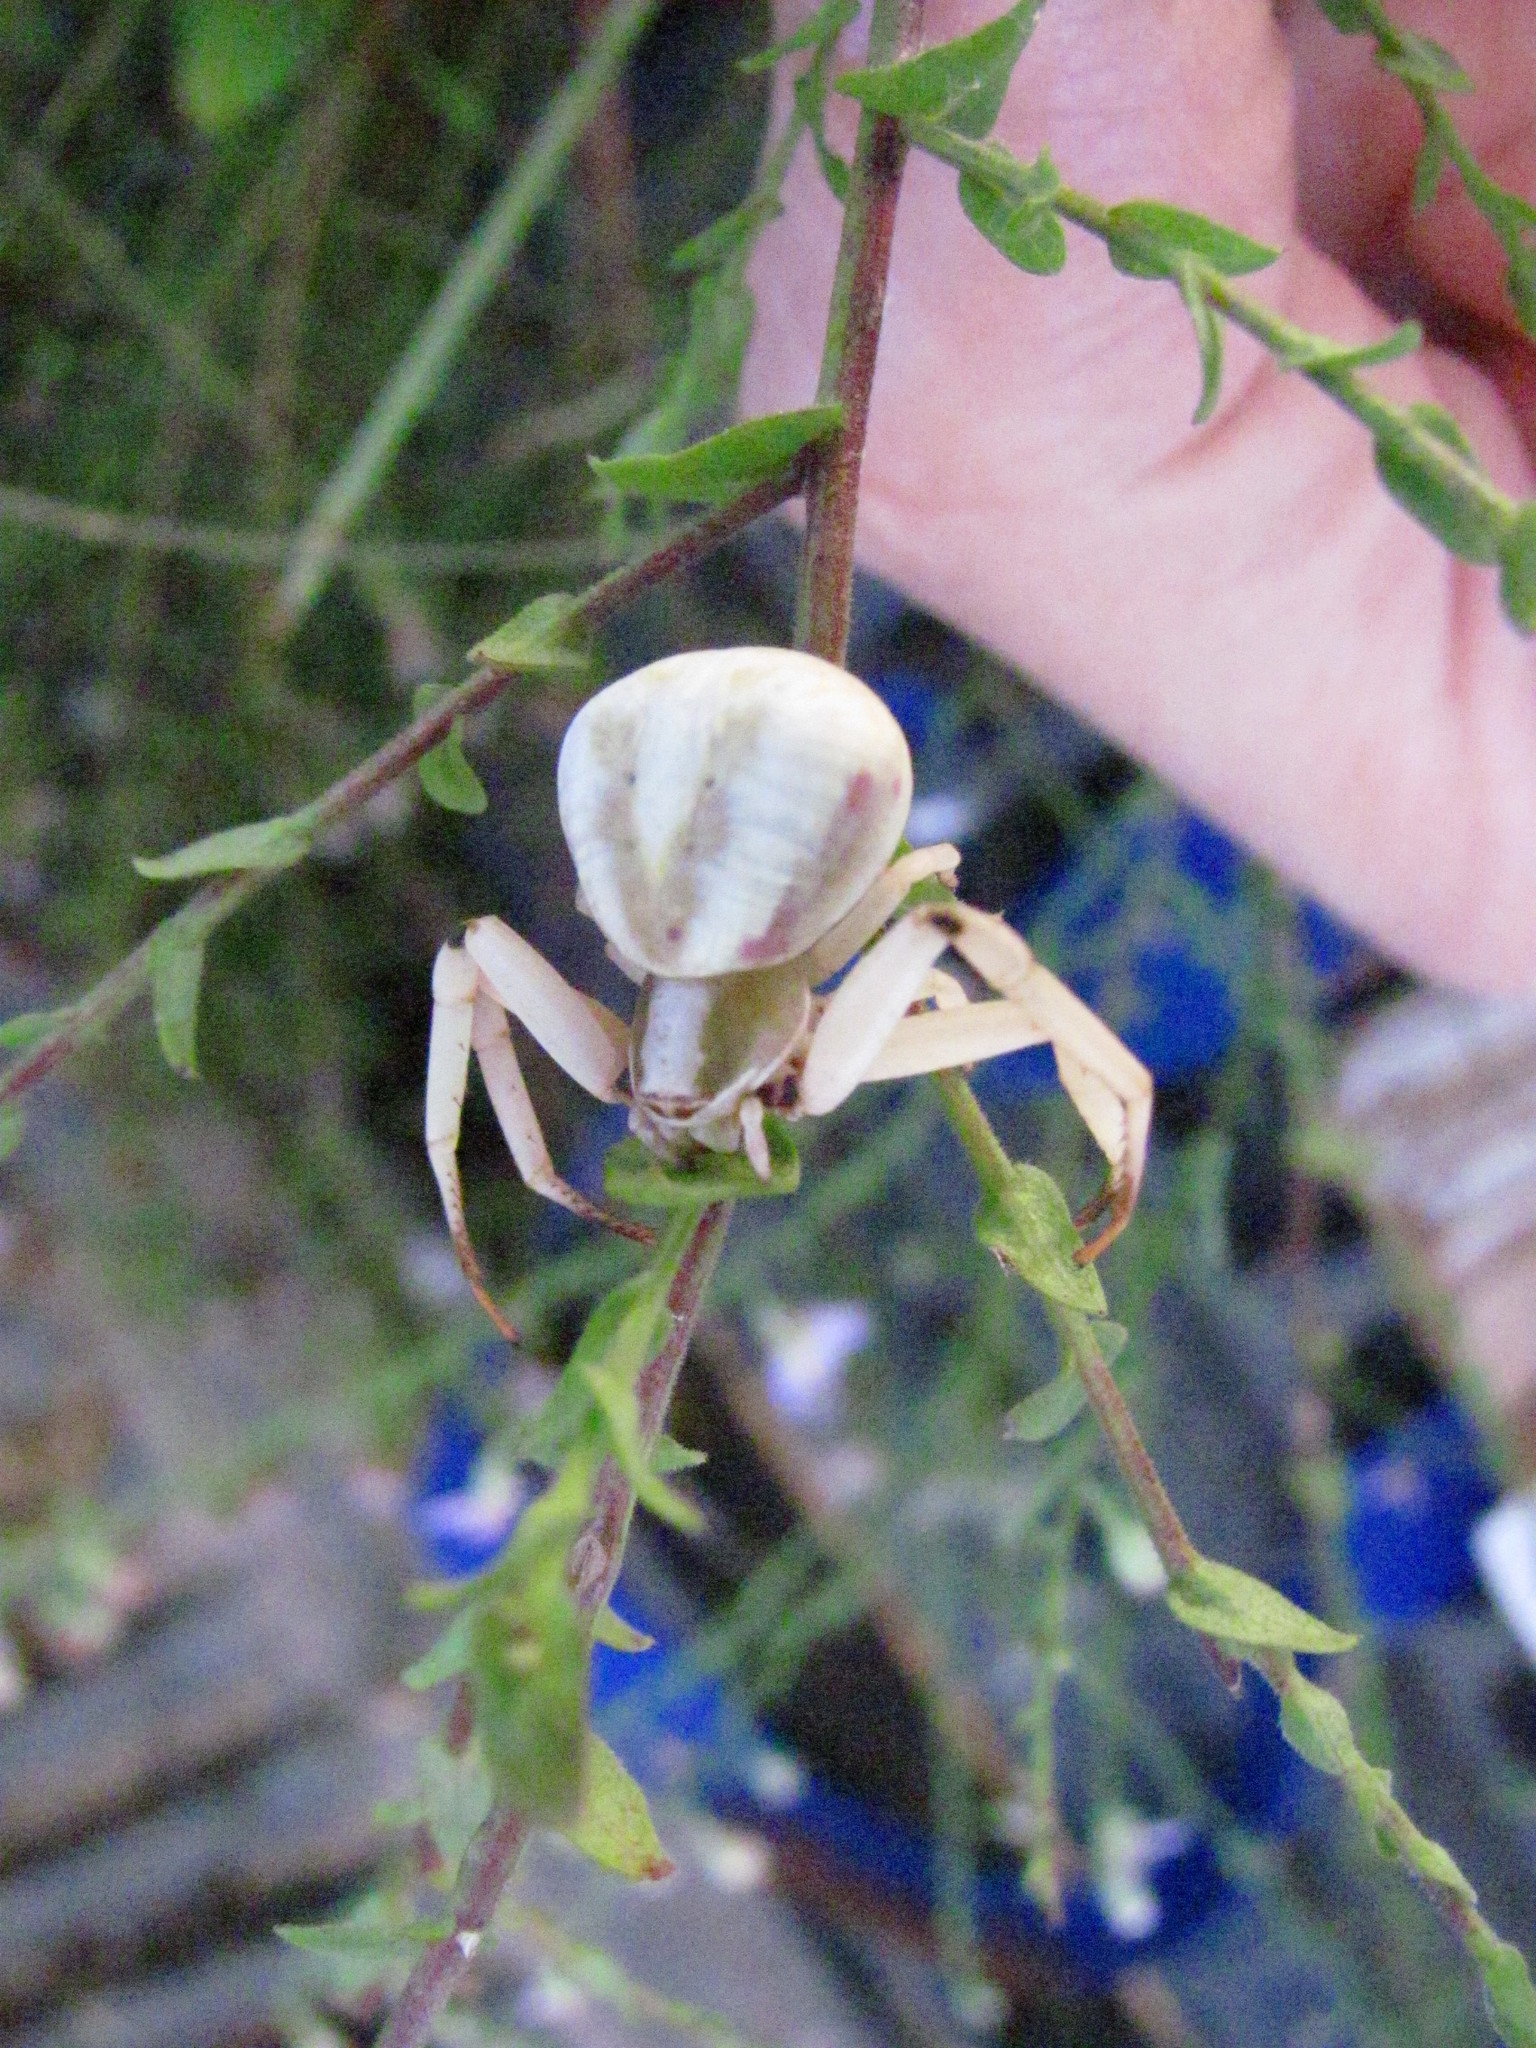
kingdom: Animalia
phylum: Arthropoda
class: Arachnida
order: Araneae
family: Thomisidae
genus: Misumenoides
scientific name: Misumenoides formosipes
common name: White-banded crab spider
